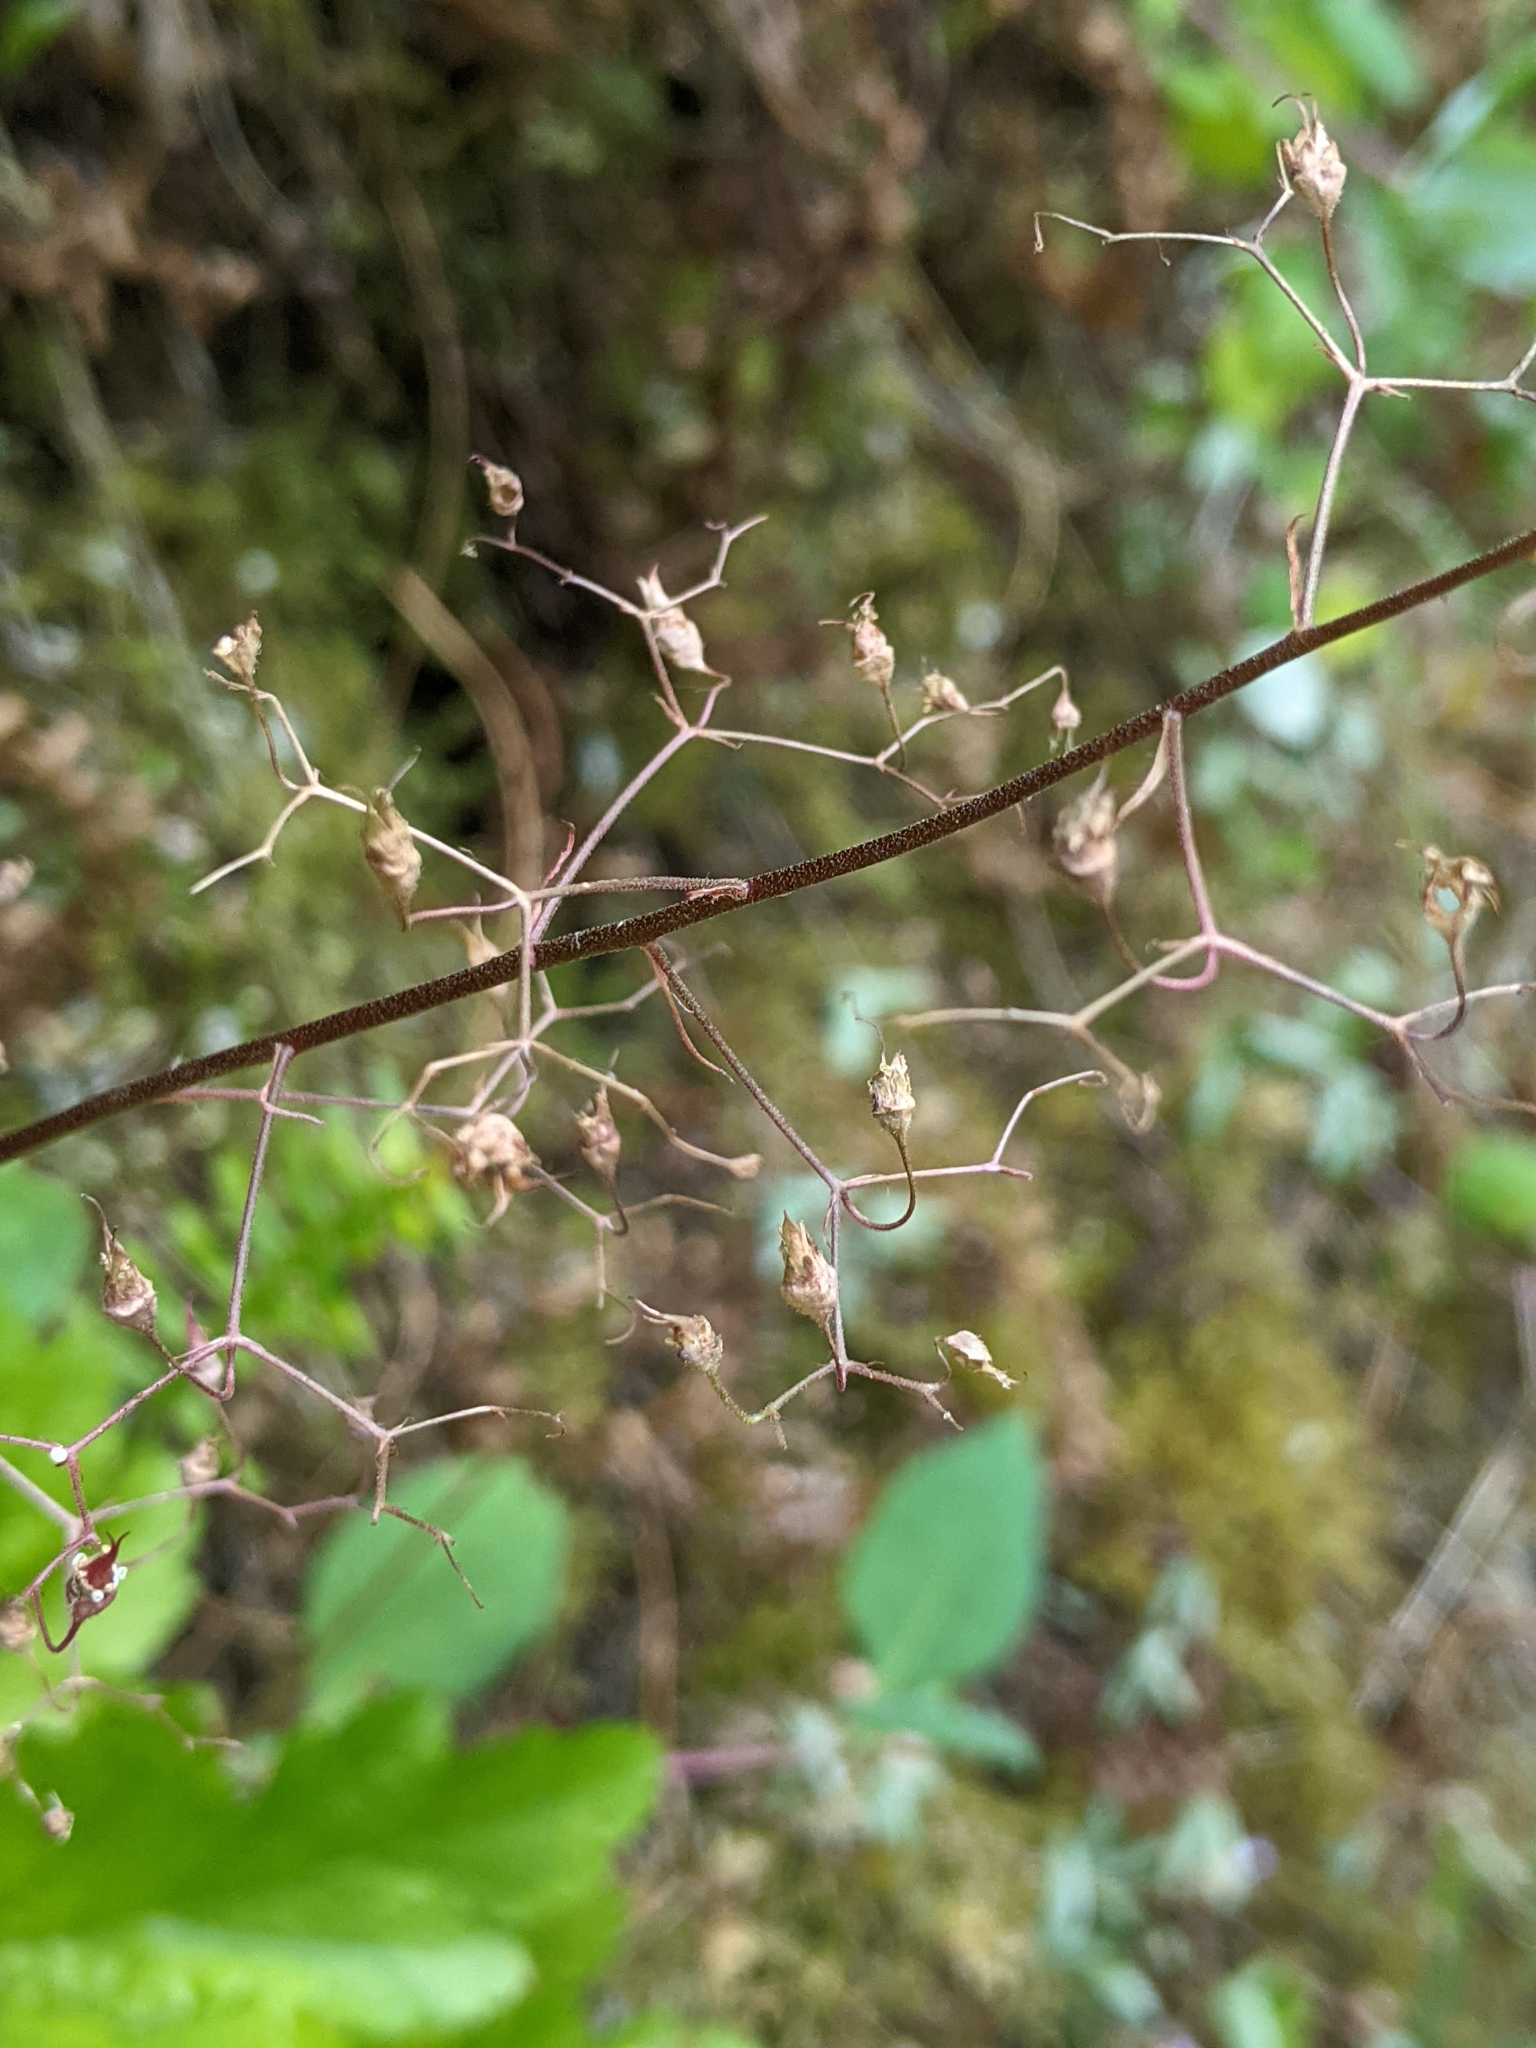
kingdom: Plantae
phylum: Tracheophyta
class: Magnoliopsida
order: Saxifragales
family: Saxifragaceae
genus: Heuchera
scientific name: Heuchera micrantha
